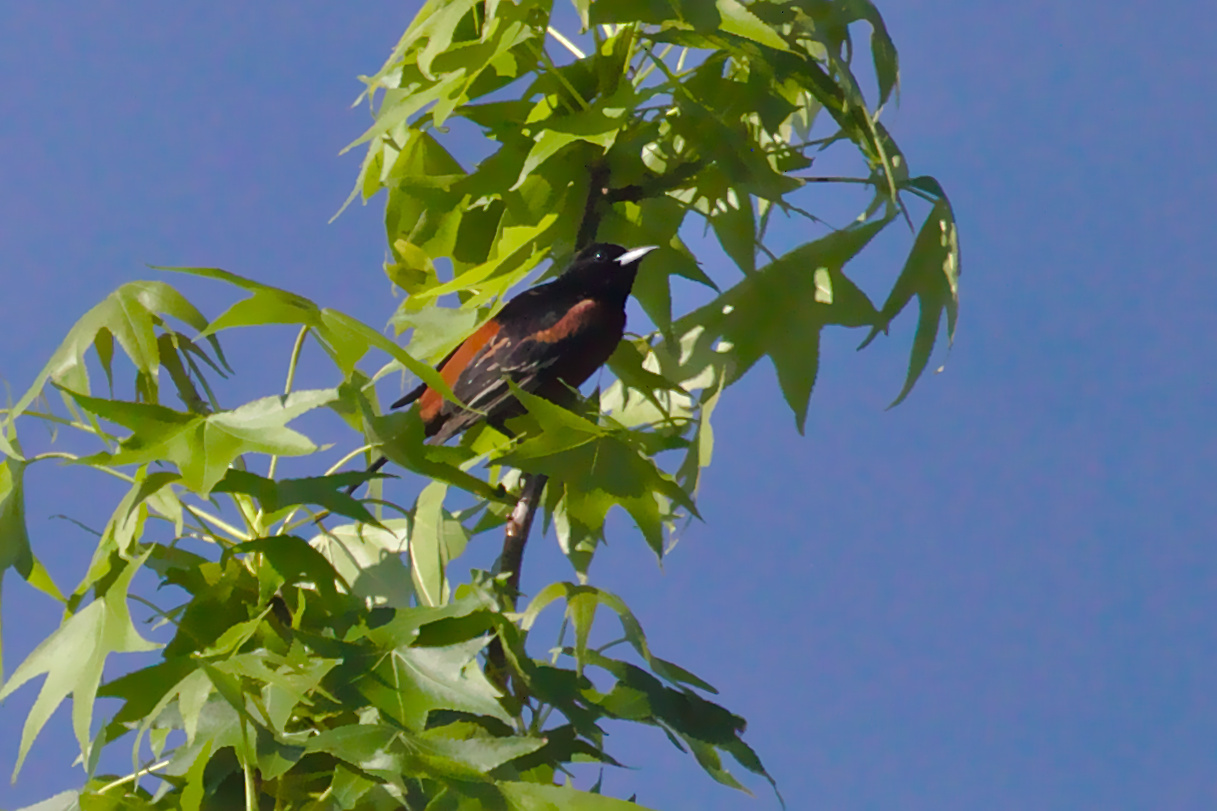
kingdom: Animalia
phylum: Chordata
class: Aves
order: Passeriformes
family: Icteridae
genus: Icterus
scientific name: Icterus spurius
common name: Orchard oriole
